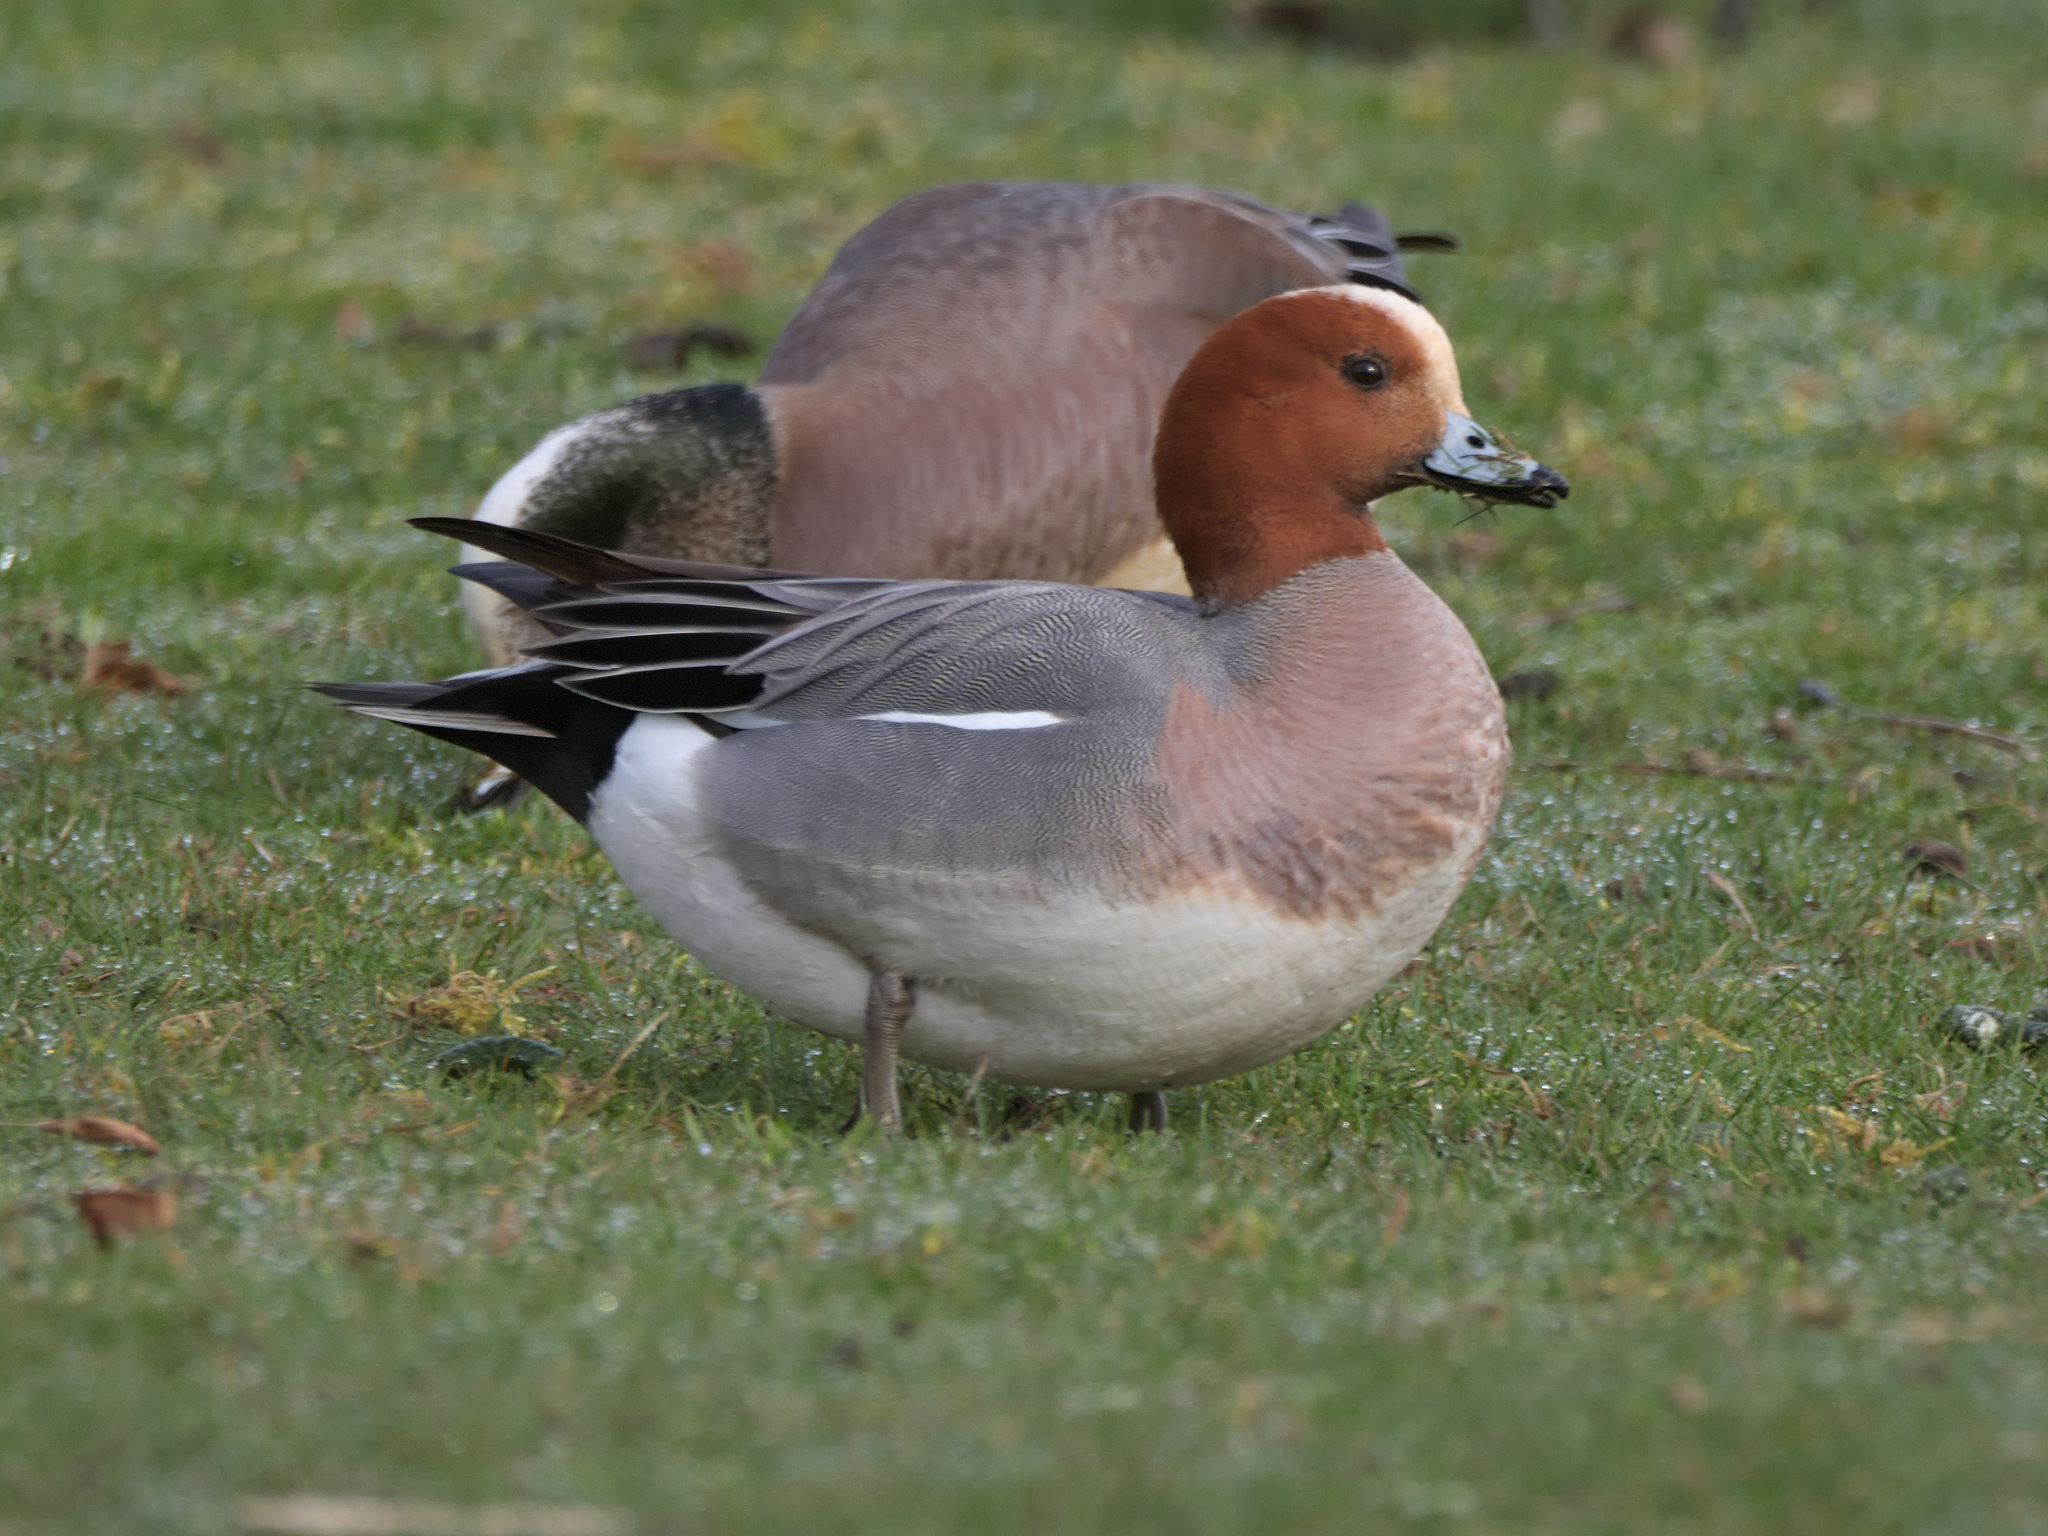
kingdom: Animalia
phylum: Chordata
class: Aves
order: Anseriformes
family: Anatidae
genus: Mareca
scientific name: Mareca penelope
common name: Eurasian wigeon
